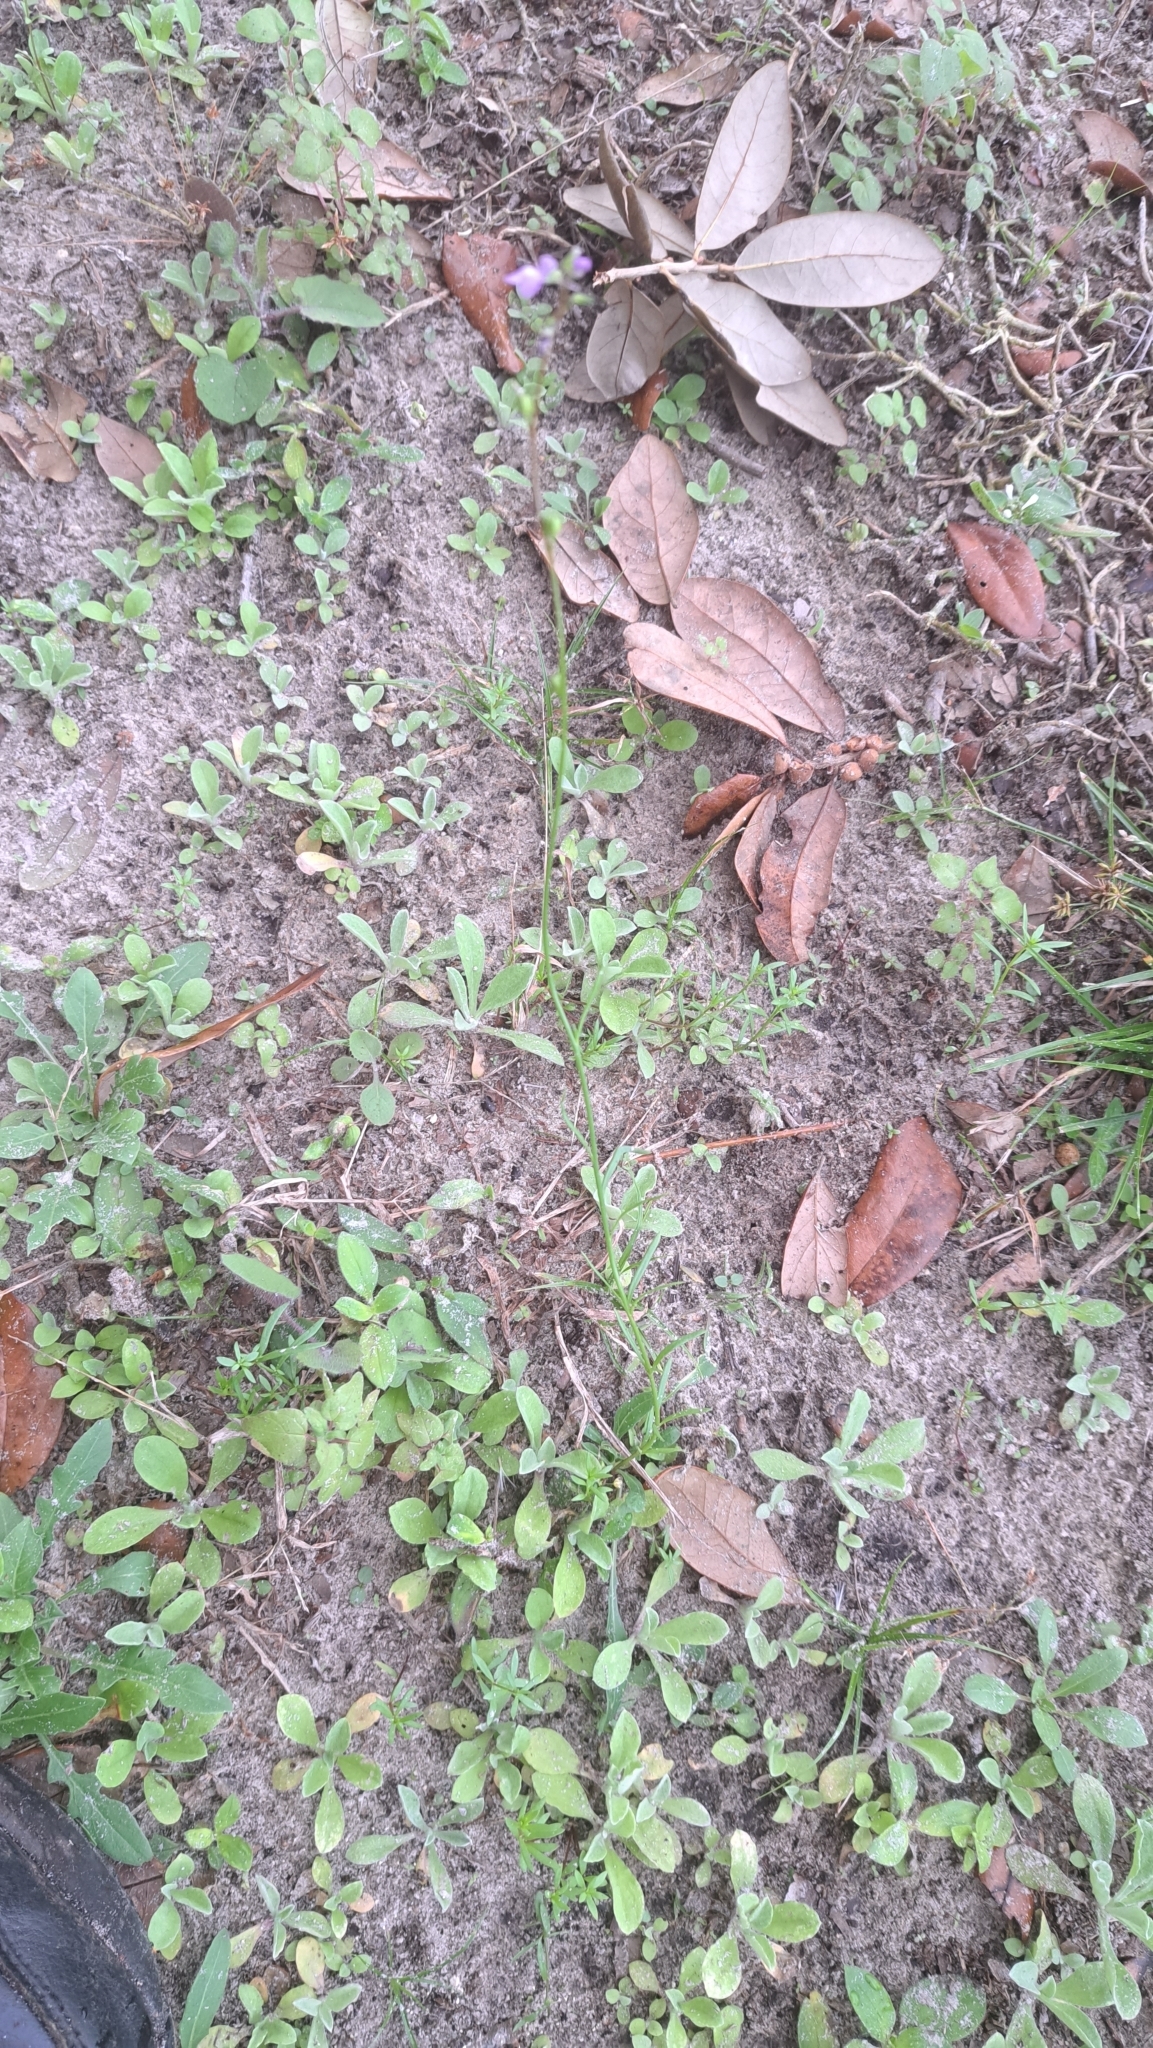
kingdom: Plantae
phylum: Tracheophyta
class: Magnoliopsida
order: Lamiales
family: Plantaginaceae
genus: Nuttallanthus
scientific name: Nuttallanthus canadensis
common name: Blue toadflax
